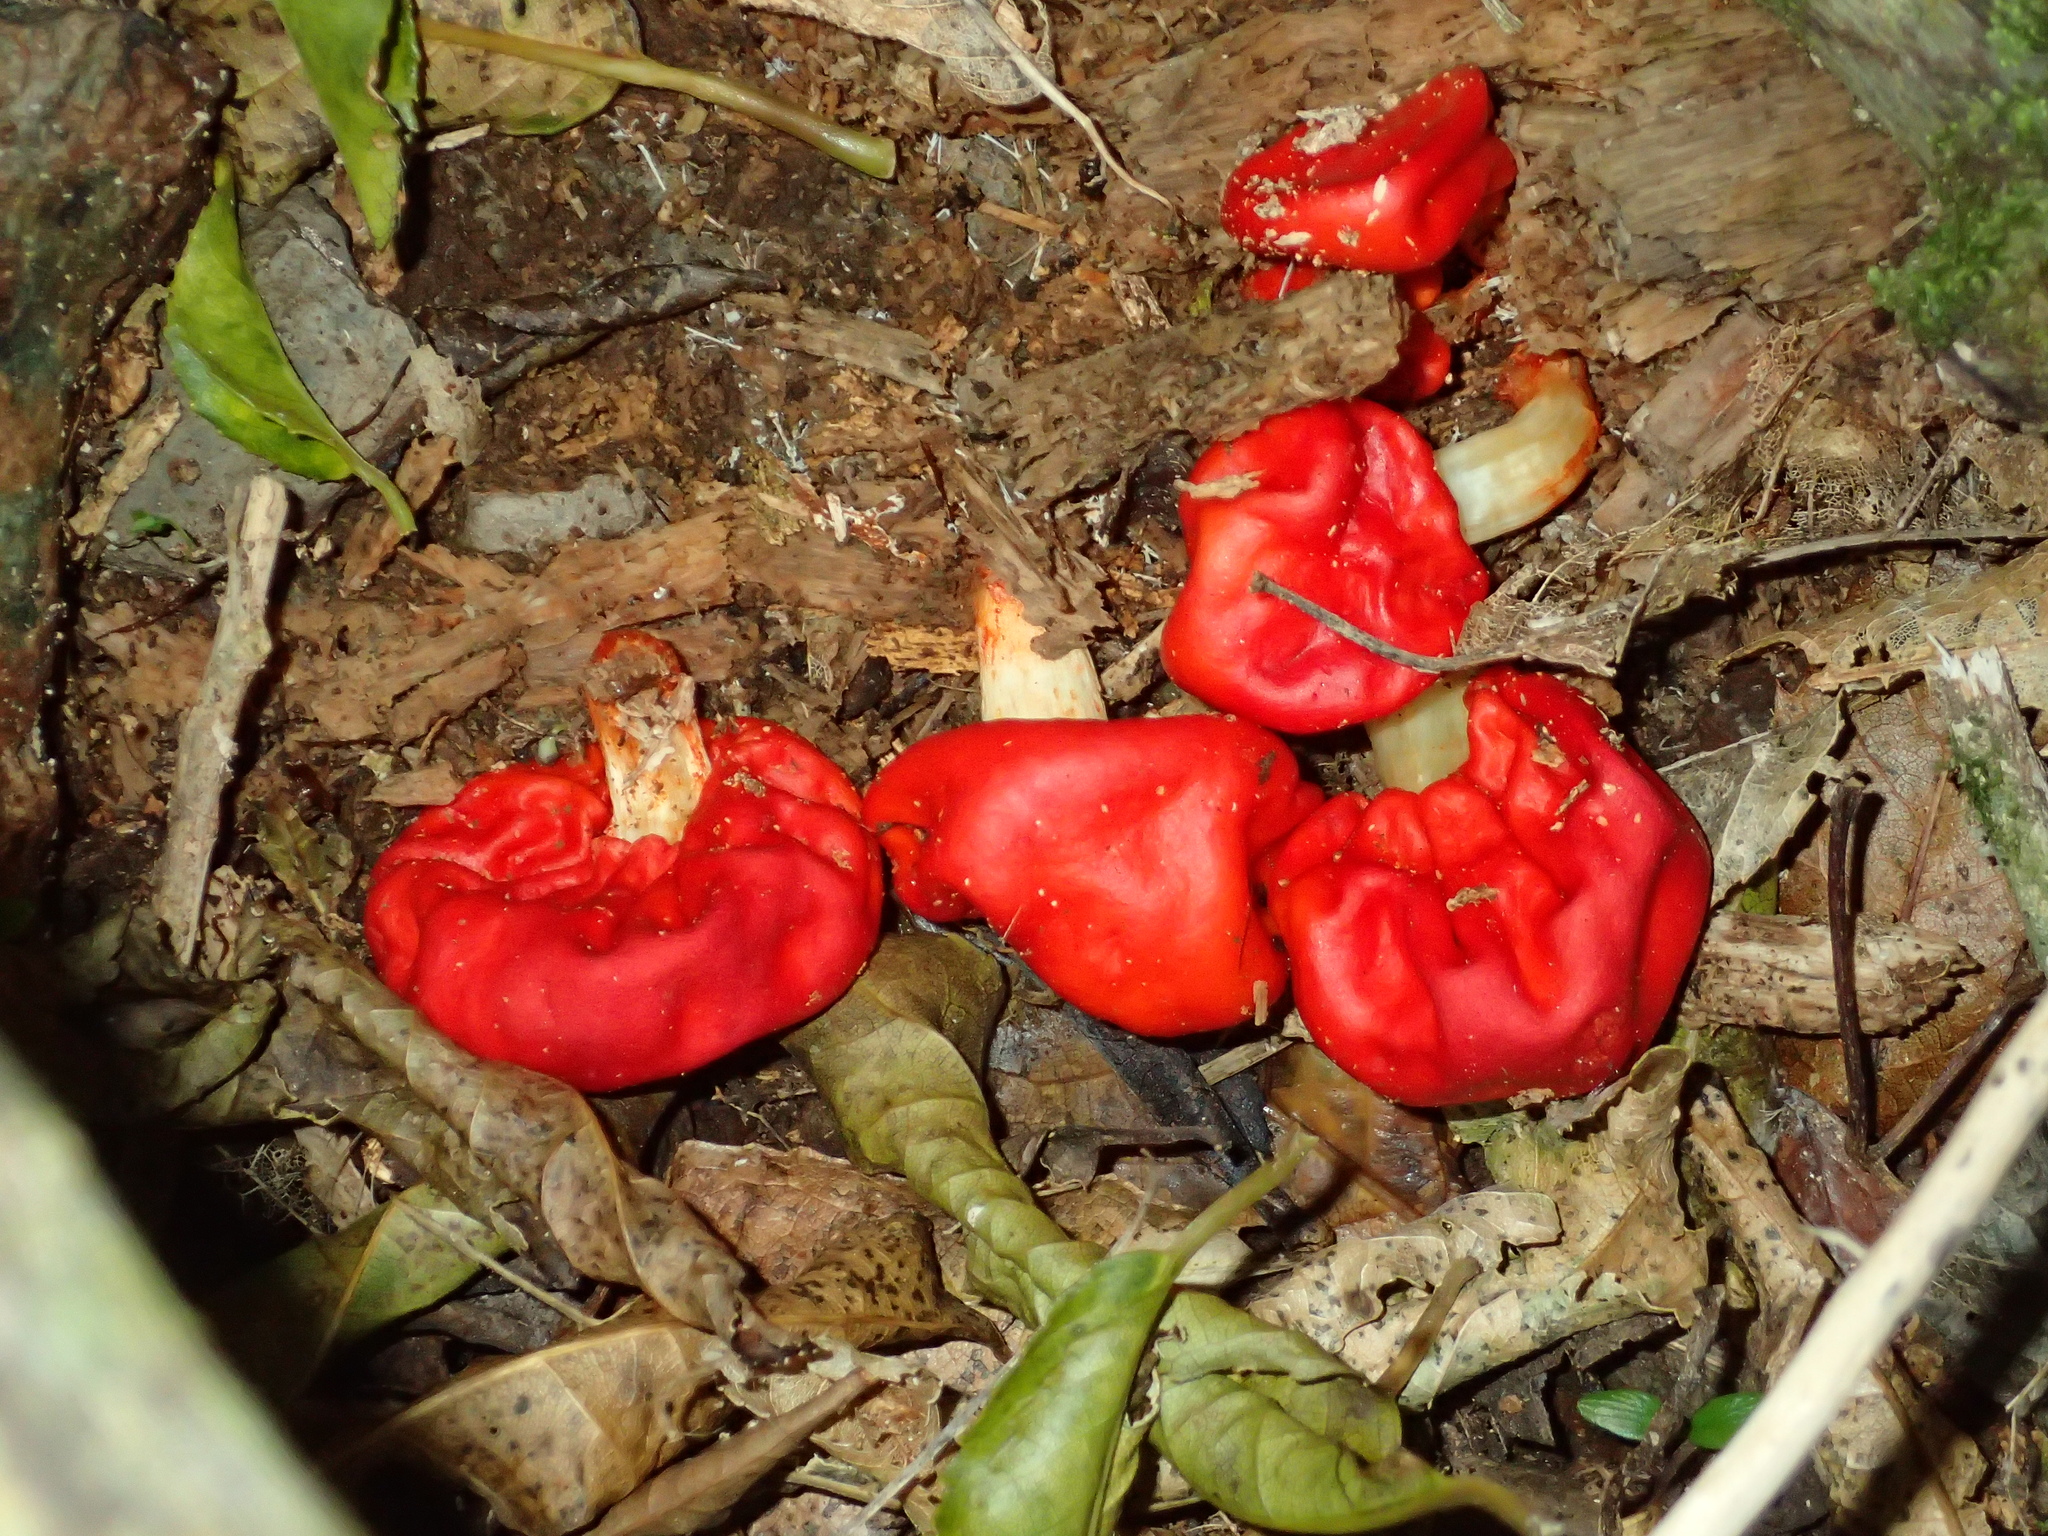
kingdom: Fungi
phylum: Basidiomycota
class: Agaricomycetes
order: Agaricales
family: Strophariaceae
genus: Leratiomyces
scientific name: Leratiomyces erythrocephalus
